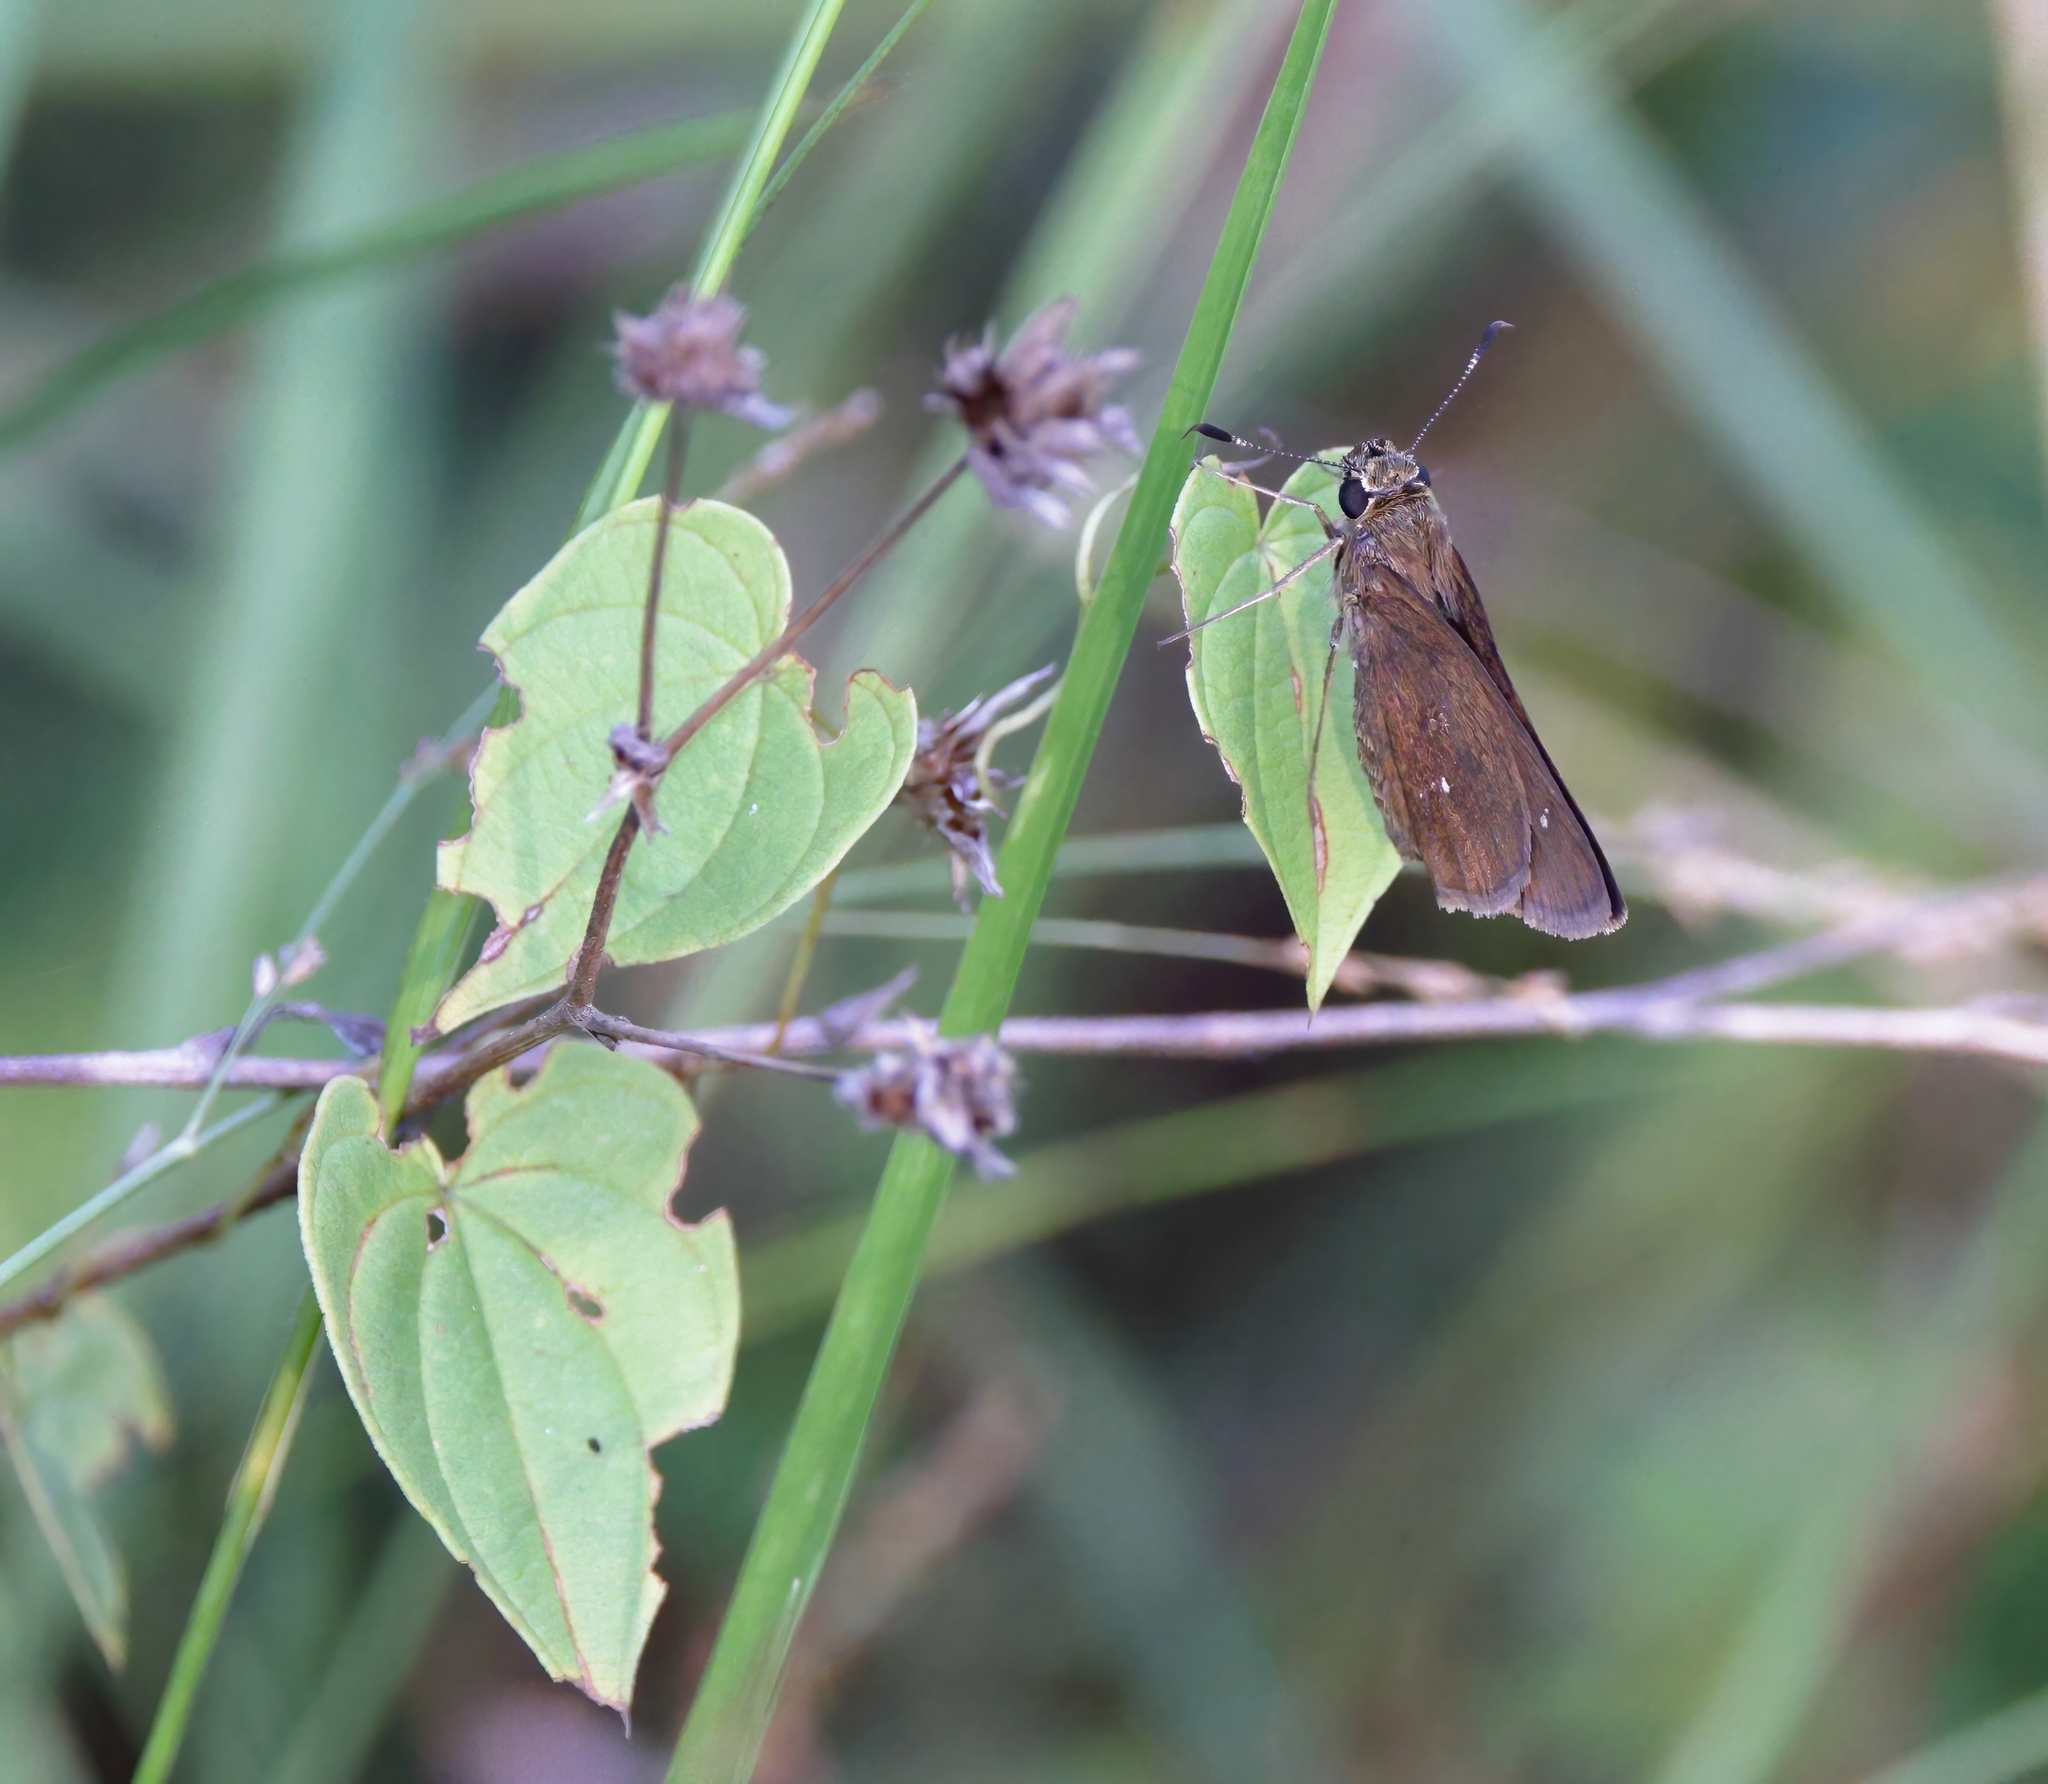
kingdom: Animalia
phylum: Arthropoda
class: Insecta
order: Lepidoptera
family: Hesperiidae
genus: Oligoria
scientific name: Oligoria maculata
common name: Twin-spot skipper
